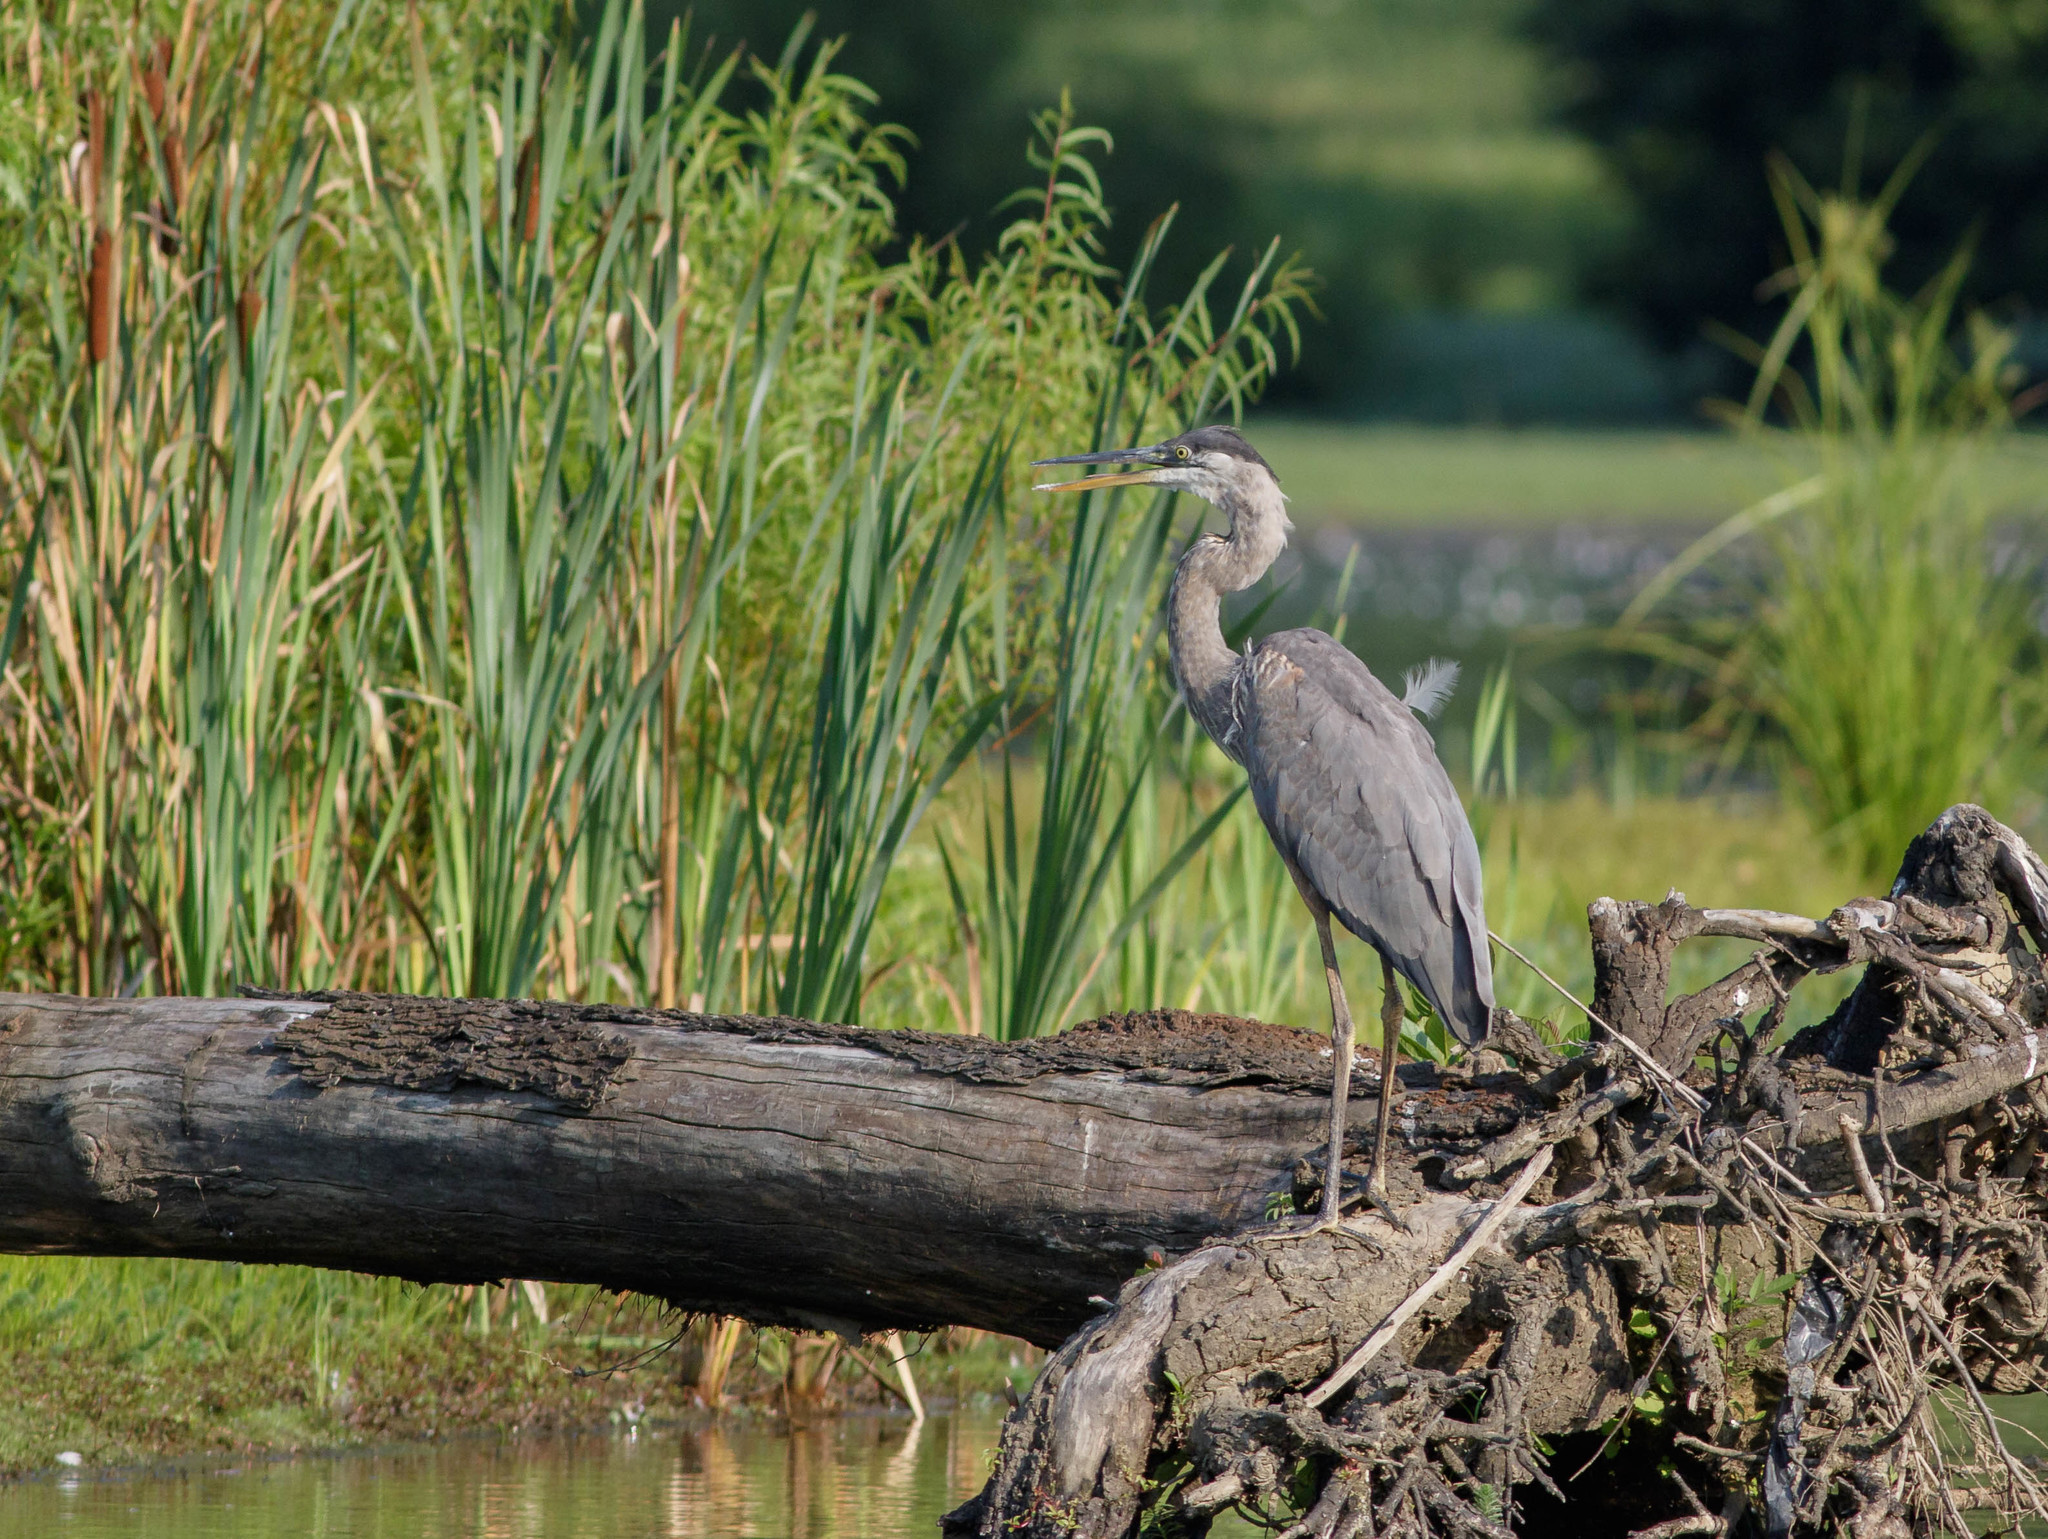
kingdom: Animalia
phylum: Chordata
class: Aves
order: Pelecaniformes
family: Ardeidae
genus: Ardea
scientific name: Ardea herodias
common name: Great blue heron
